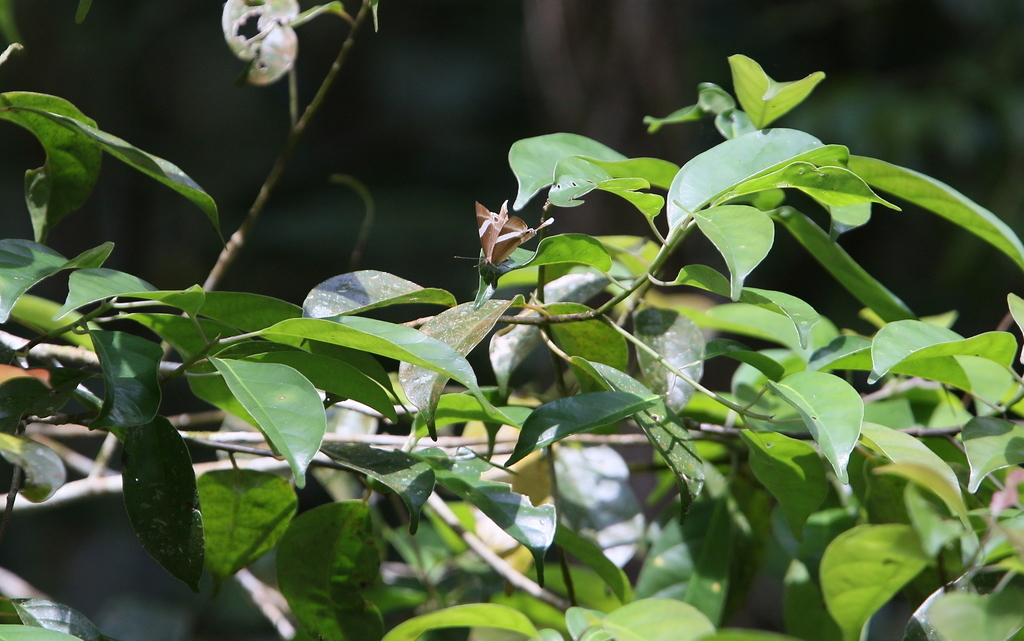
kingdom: Animalia
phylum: Arthropoda
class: Insecta
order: Lepidoptera
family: Lycaenidae
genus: Abisara
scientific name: Abisara neophron
